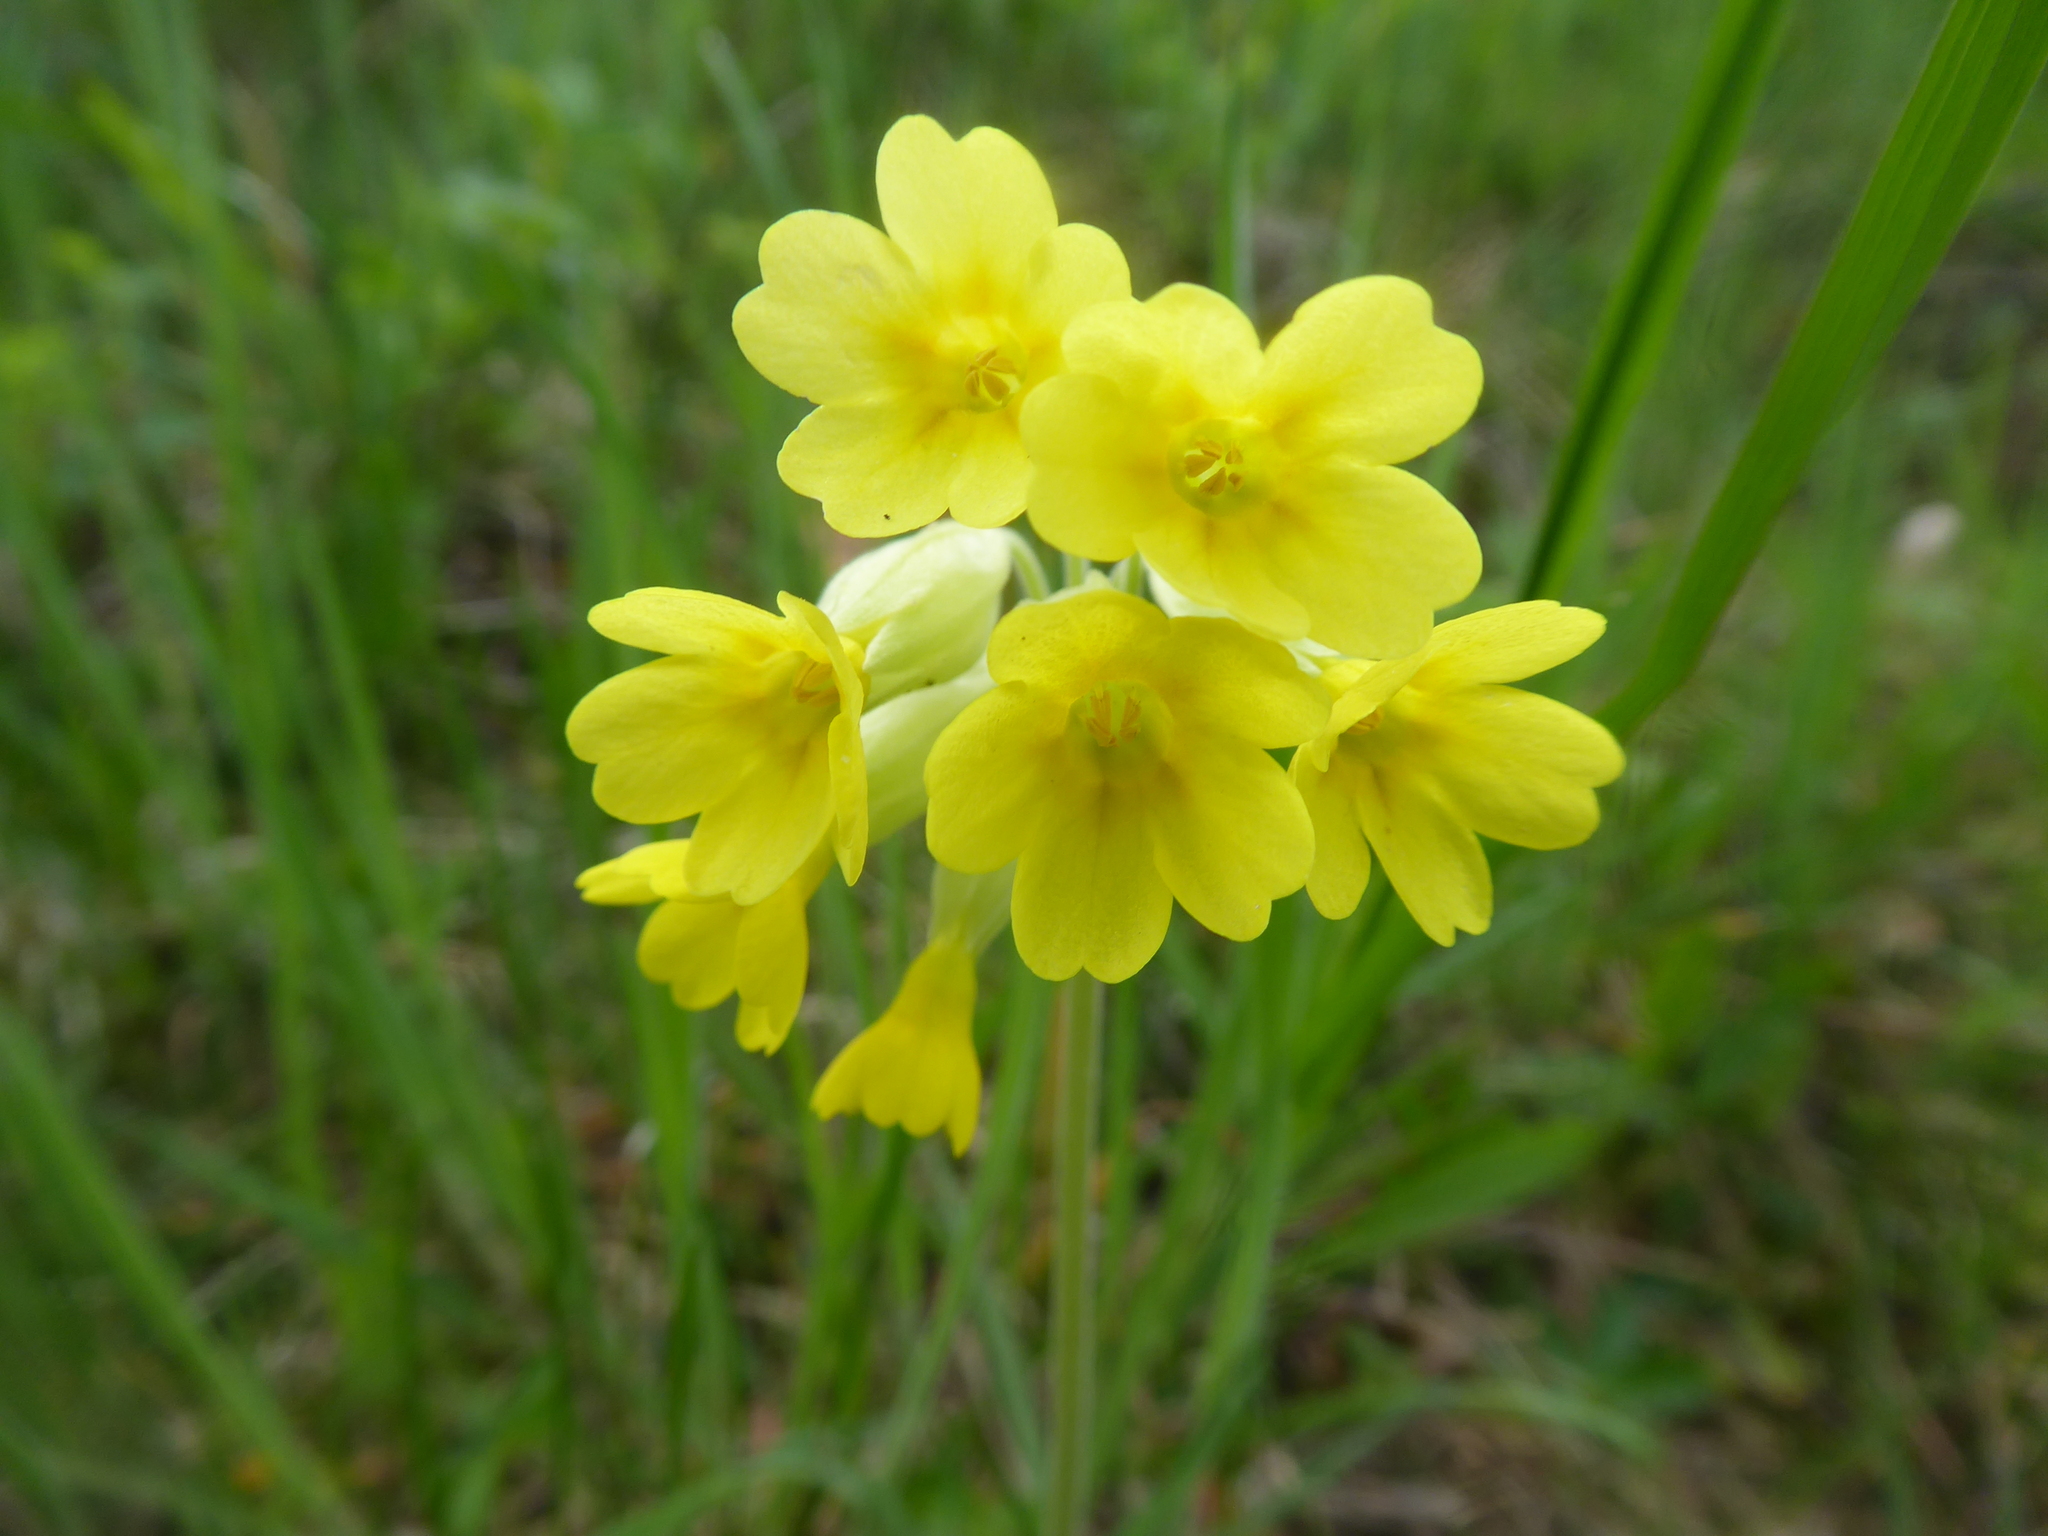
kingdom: Plantae
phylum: Tracheophyta
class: Magnoliopsida
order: Ericales
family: Primulaceae
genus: Primula
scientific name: Primula veris
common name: Cowslip
